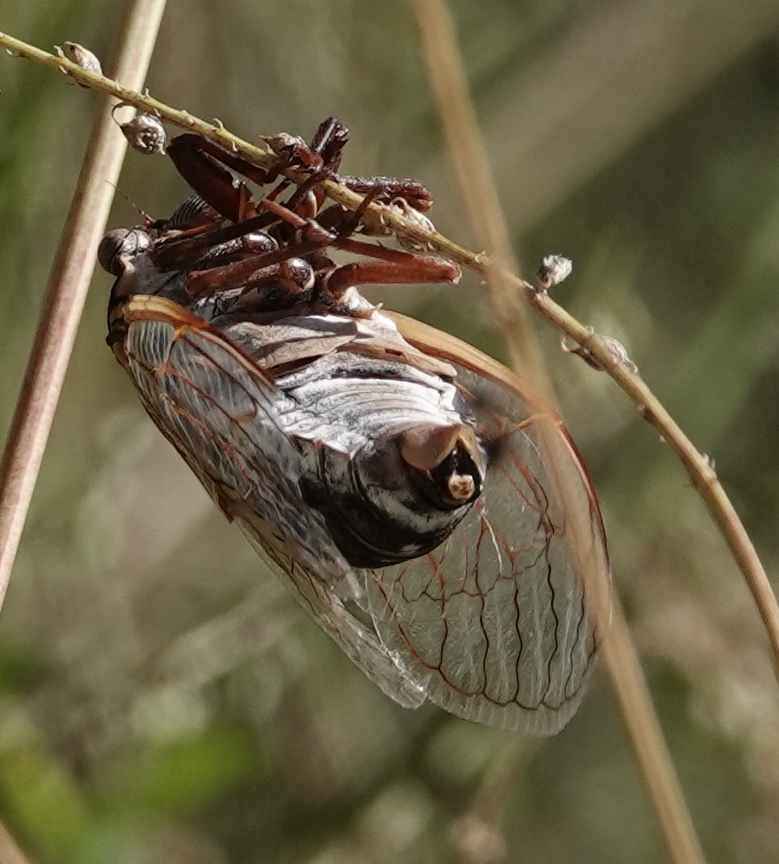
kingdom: Animalia
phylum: Arthropoda
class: Insecta
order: Hemiptera
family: Cicadidae
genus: Megatibicen
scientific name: Megatibicen dorsatus
